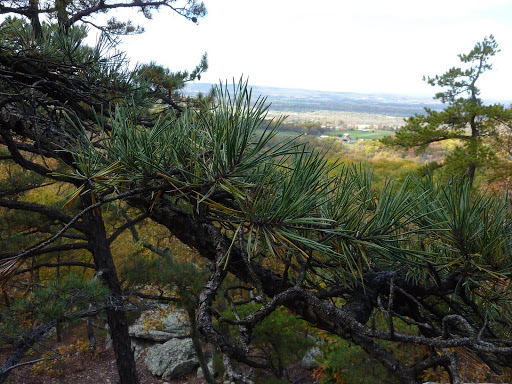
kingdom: Plantae
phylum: Tracheophyta
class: Pinopsida
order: Pinales
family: Pinaceae
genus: Pinus
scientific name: Pinus virginiana
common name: Scrub pine
